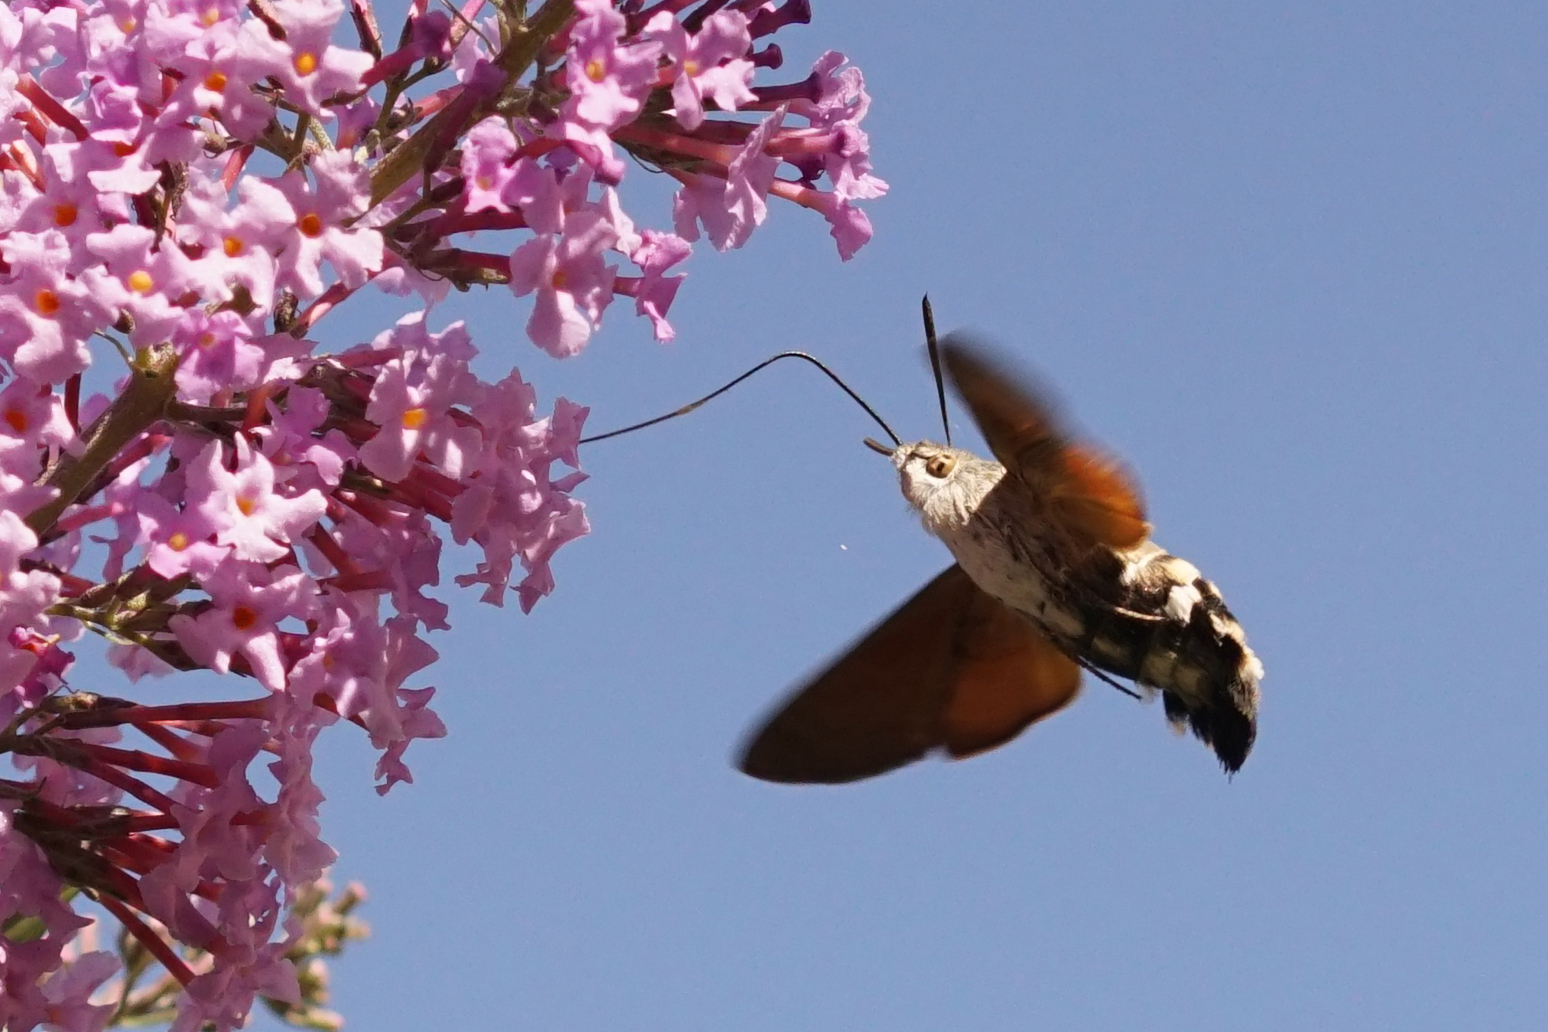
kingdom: Animalia
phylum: Arthropoda
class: Insecta
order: Lepidoptera
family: Sphingidae
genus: Macroglossum
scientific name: Macroglossum stellatarum
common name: Humming-bird hawk-moth
